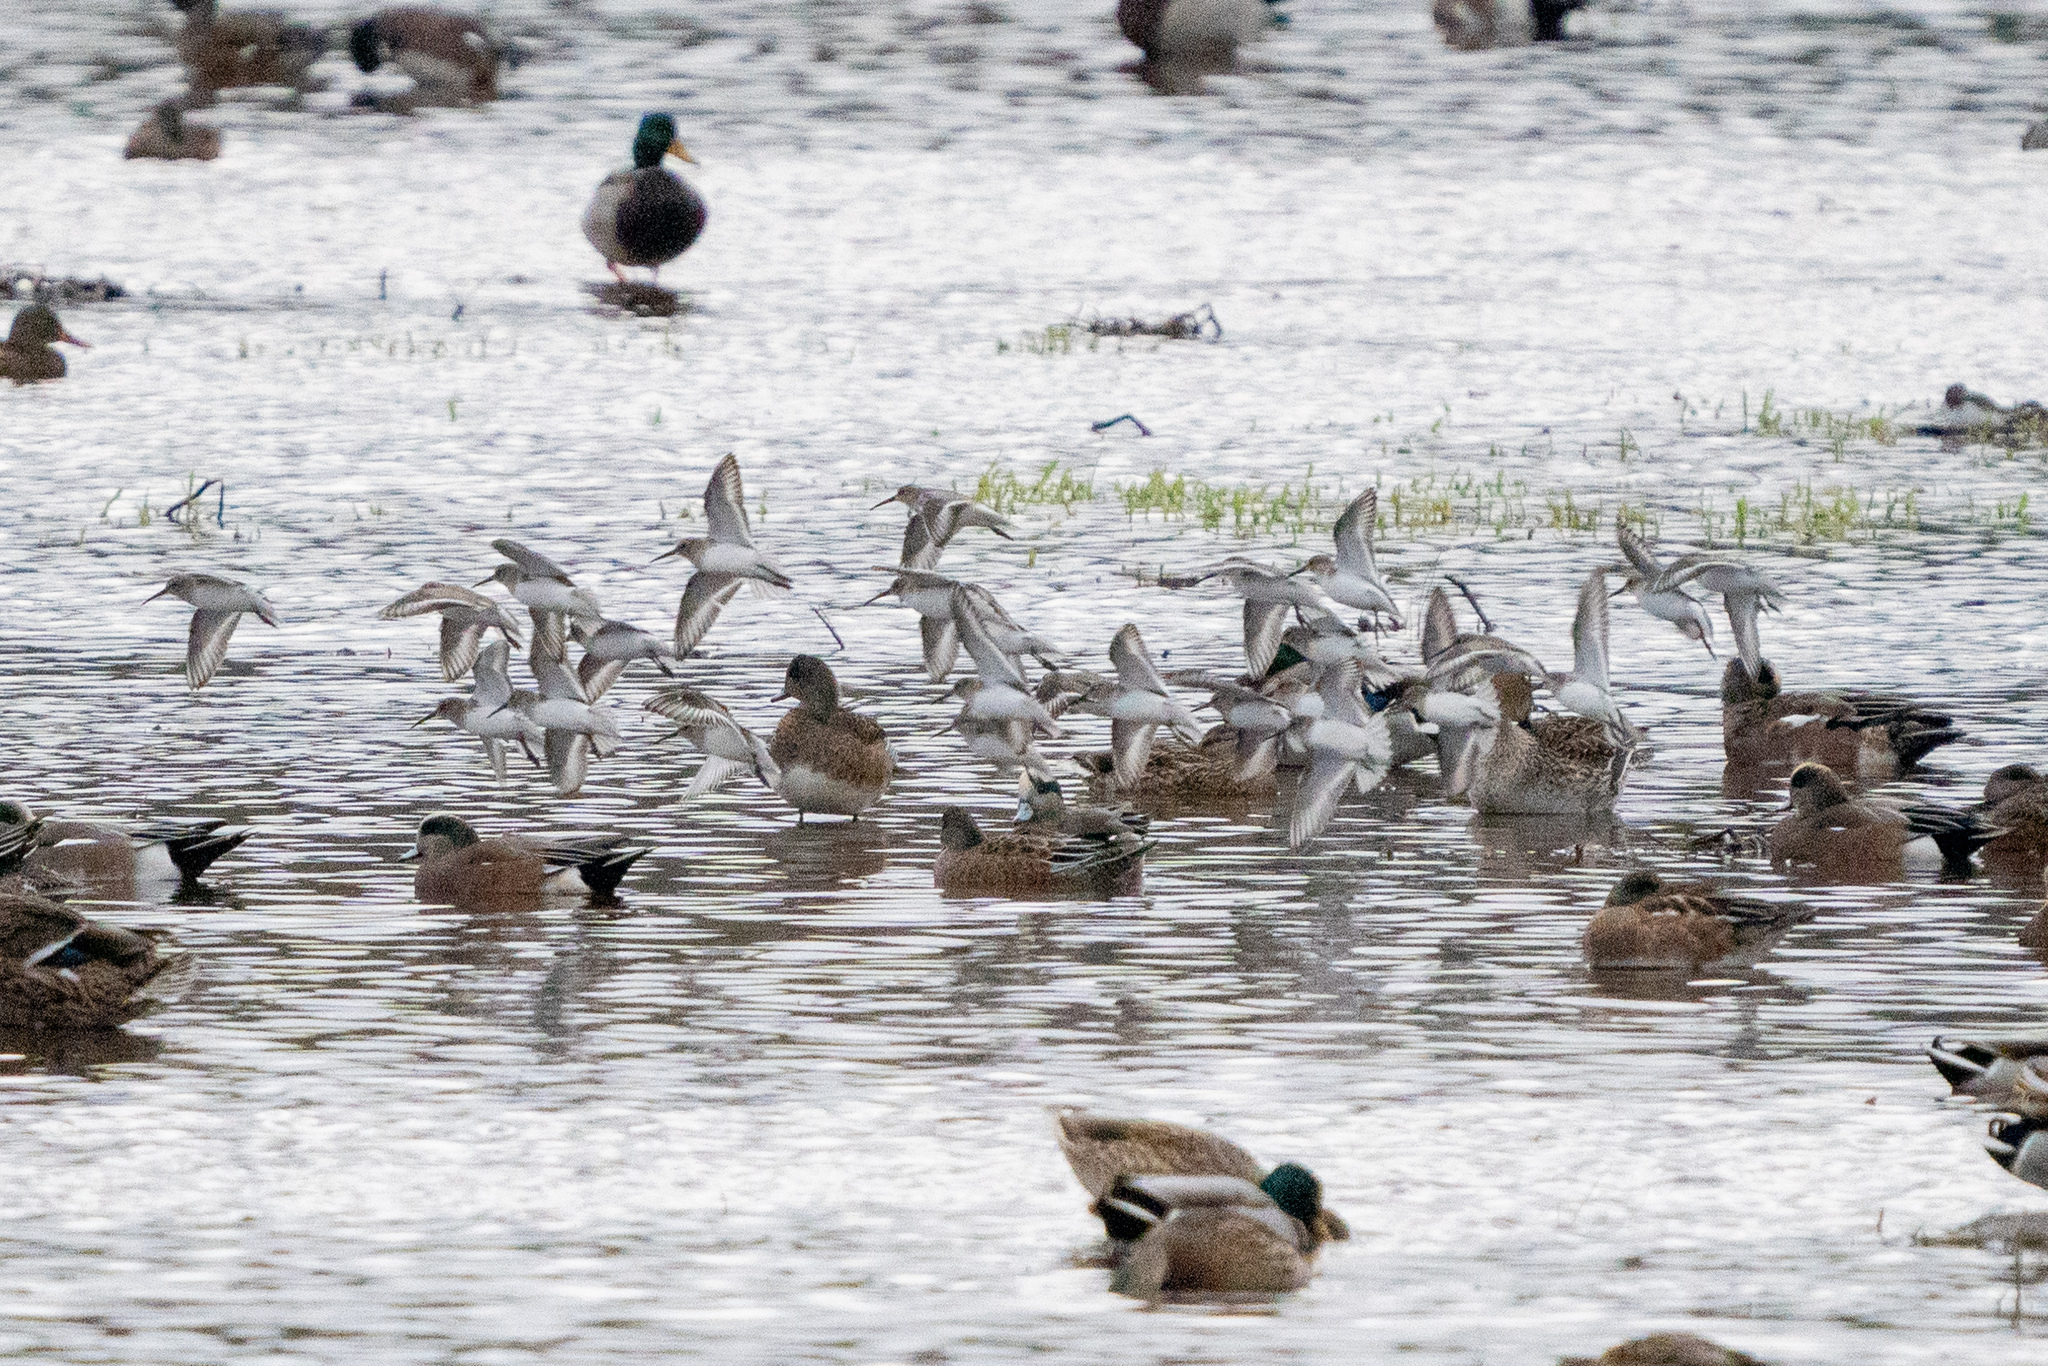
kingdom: Animalia
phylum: Chordata
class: Aves
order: Charadriiformes
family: Scolopacidae
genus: Calidris
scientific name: Calidris alpina
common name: Dunlin
